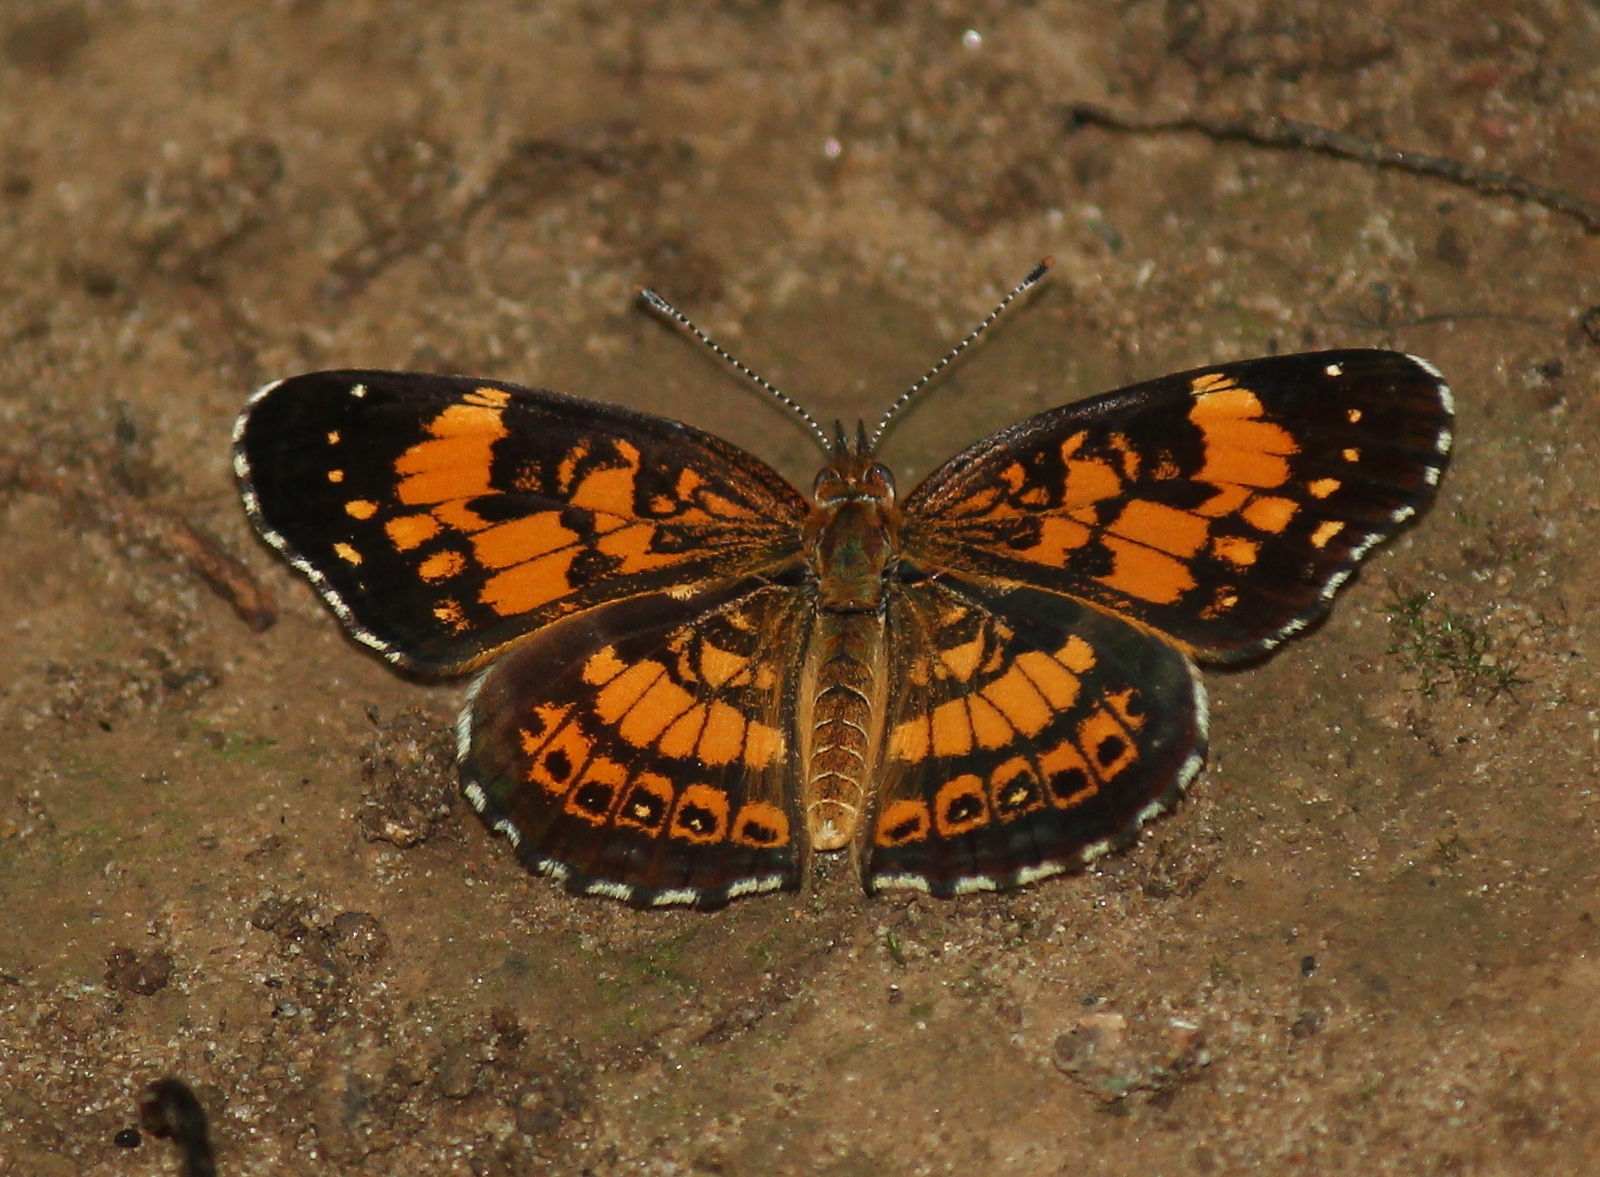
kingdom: Animalia
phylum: Arthropoda
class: Insecta
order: Lepidoptera
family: Nymphalidae
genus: Chlosyne
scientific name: Chlosyne nycteis
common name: Silvery checkerspot
